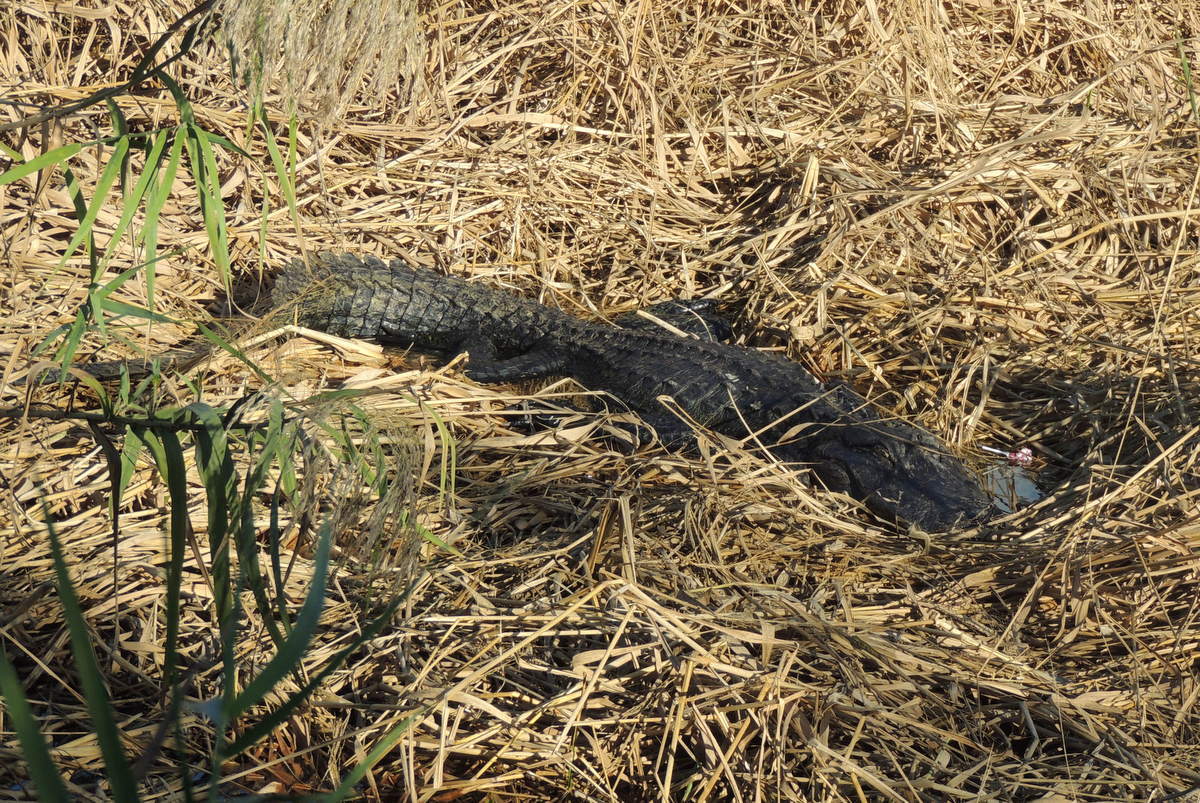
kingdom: Animalia
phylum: Chordata
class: Crocodylia
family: Alligatoridae
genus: Alligator
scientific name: Alligator mississippiensis
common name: American alligator
